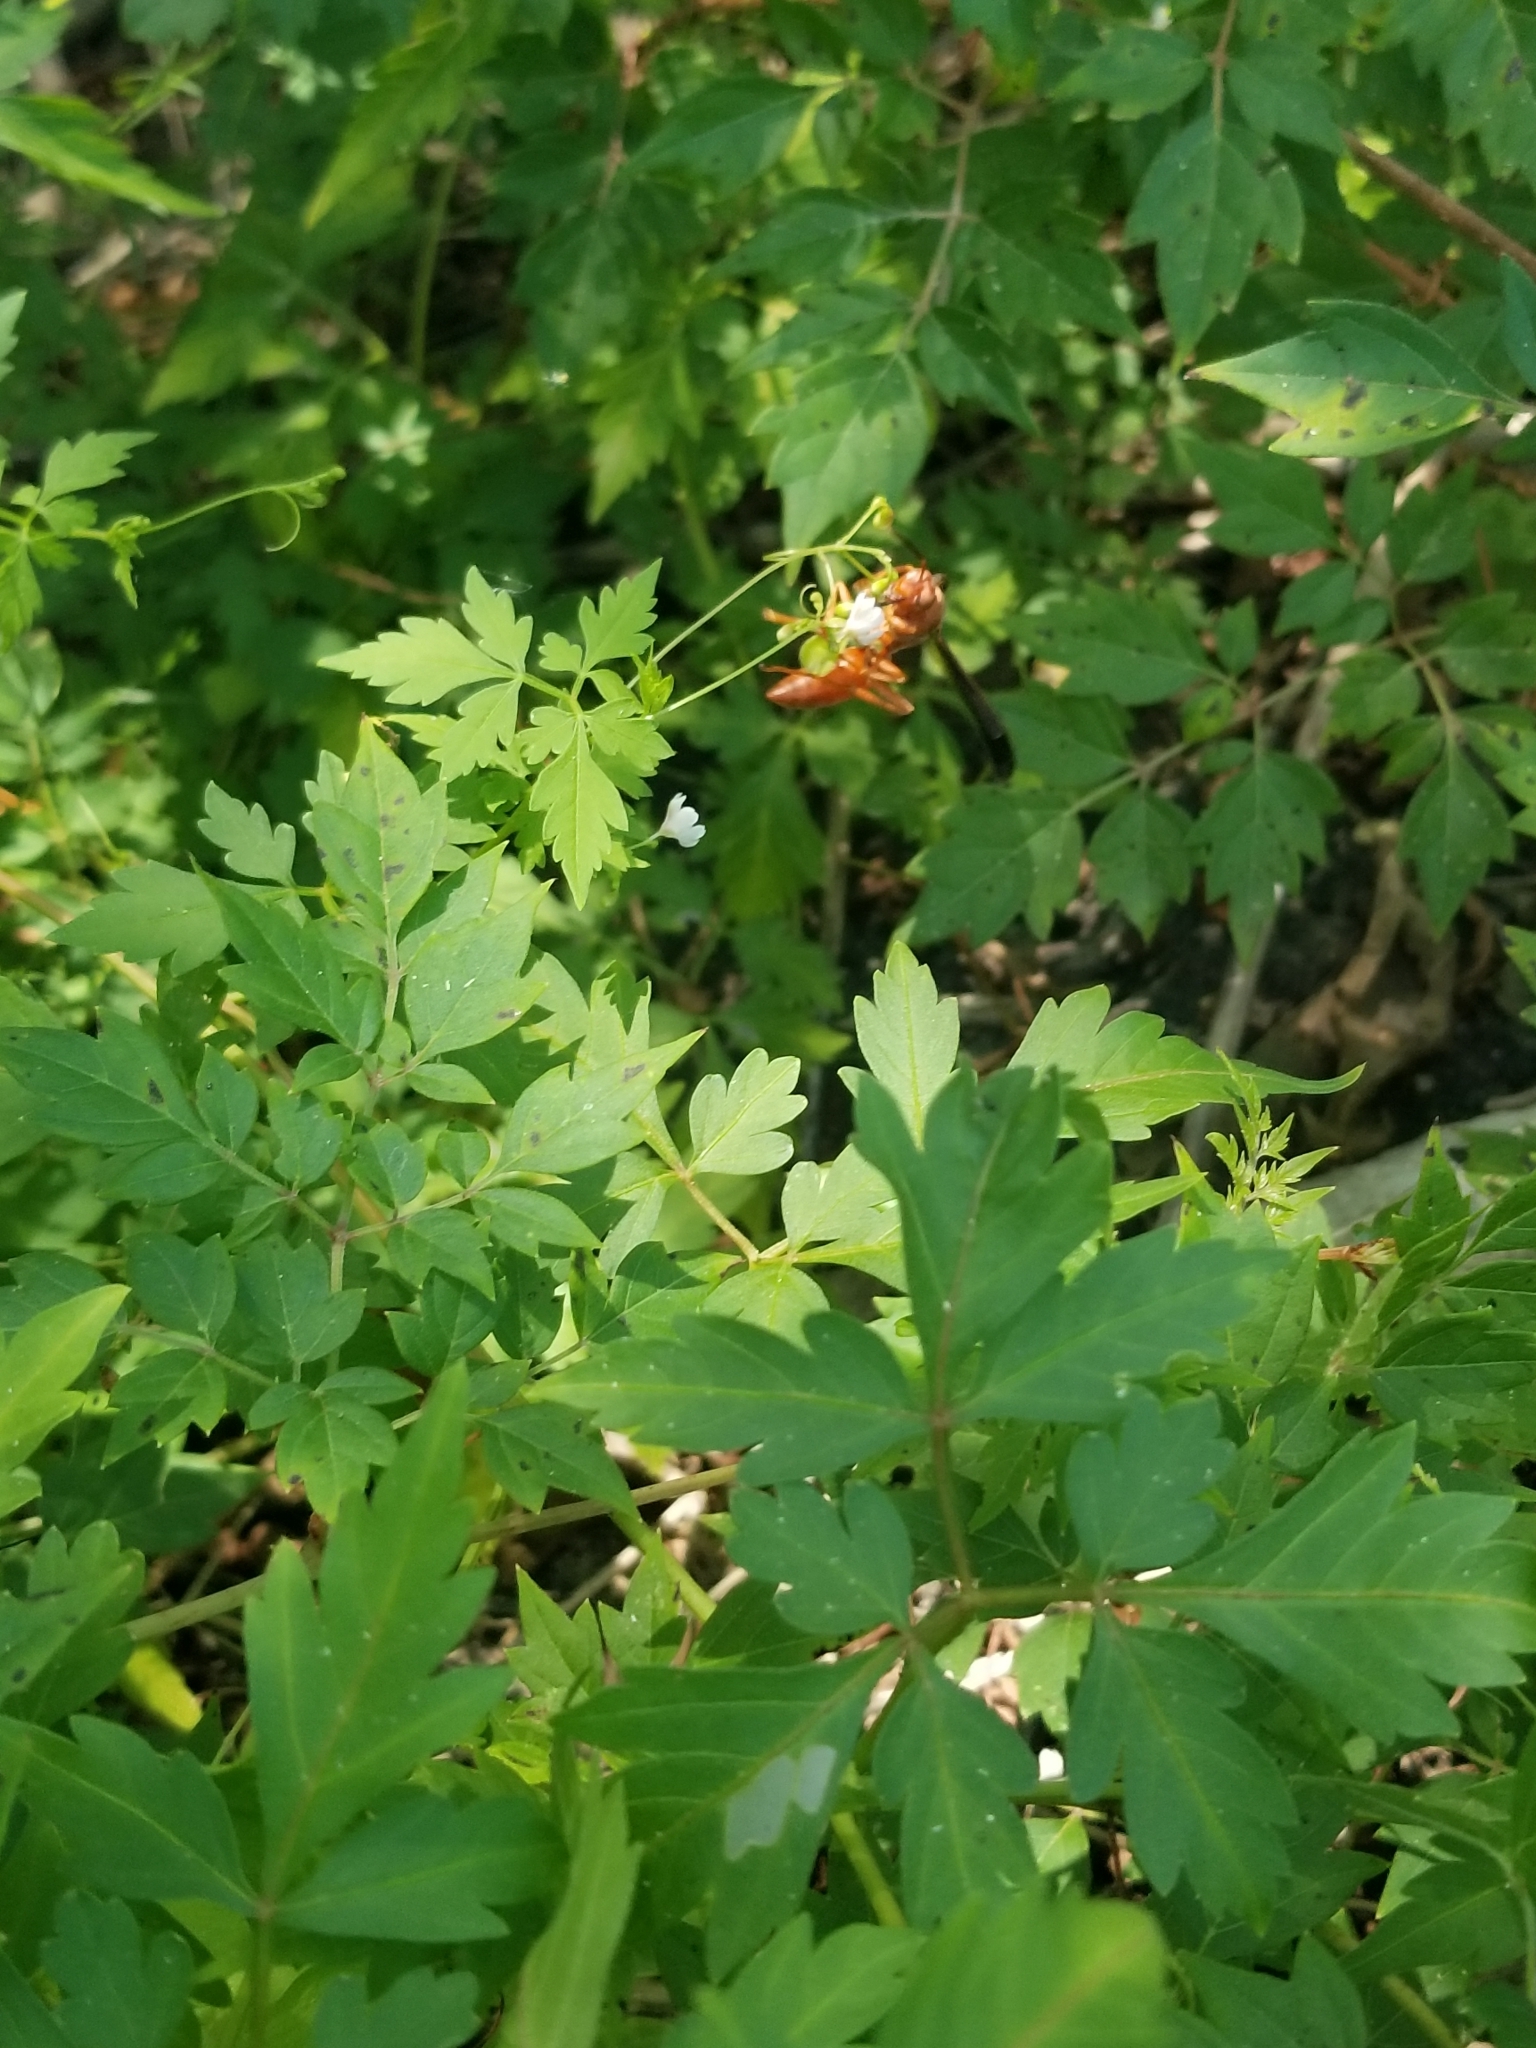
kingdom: Animalia
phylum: Arthropoda
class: Insecta
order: Hymenoptera
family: Vespidae
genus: Fuscopolistes
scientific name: Fuscopolistes
